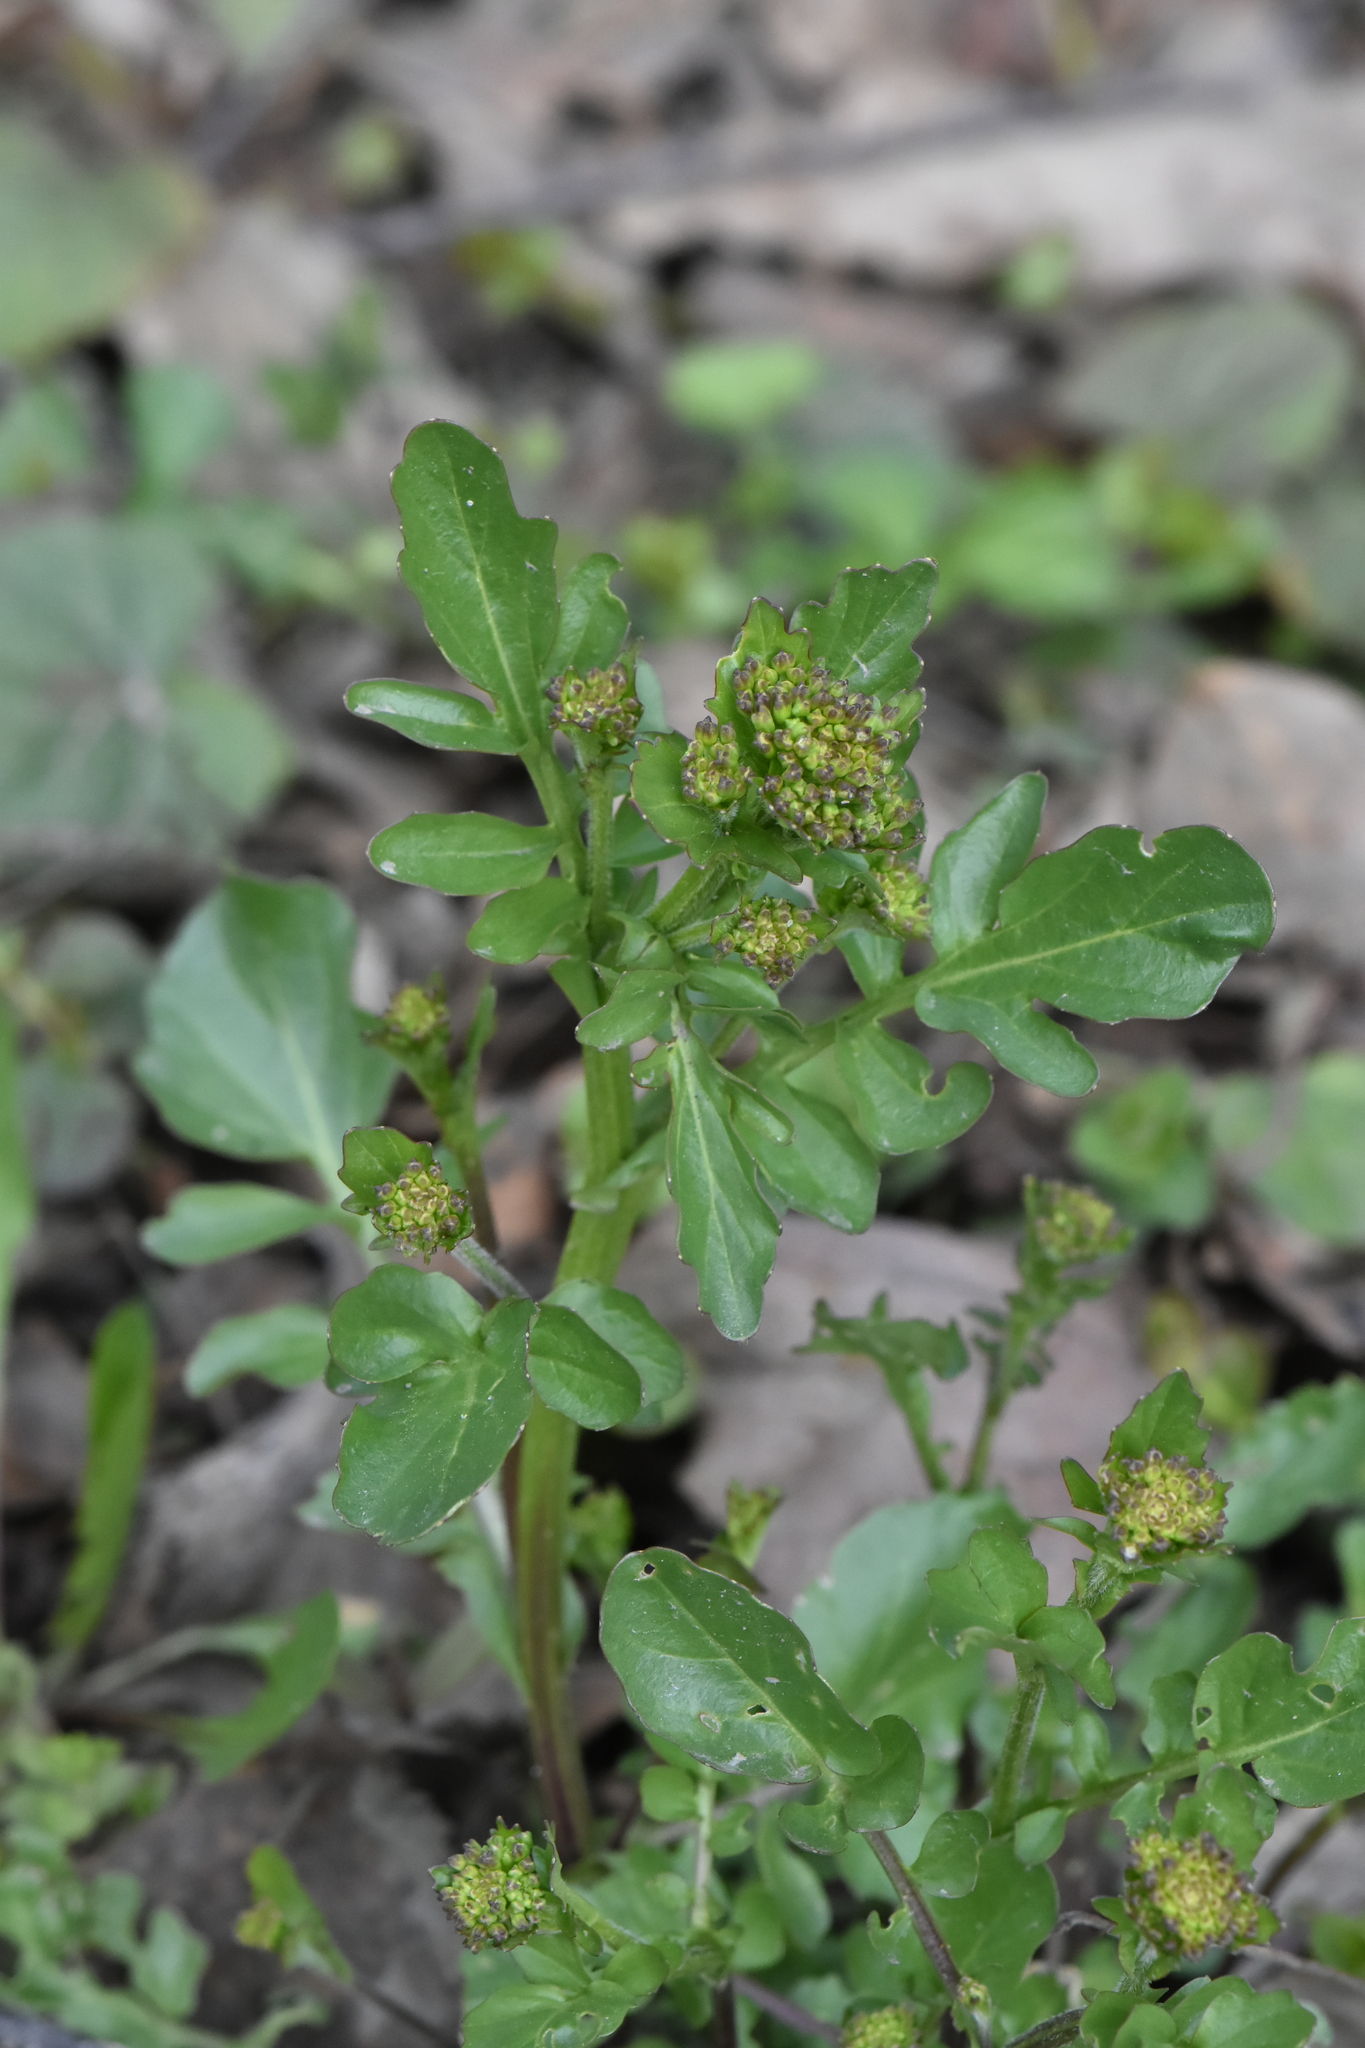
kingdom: Plantae
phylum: Tracheophyta
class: Magnoliopsida
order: Brassicales
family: Brassicaceae
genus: Barbarea
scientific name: Barbarea vulgaris
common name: Cressy-greens
